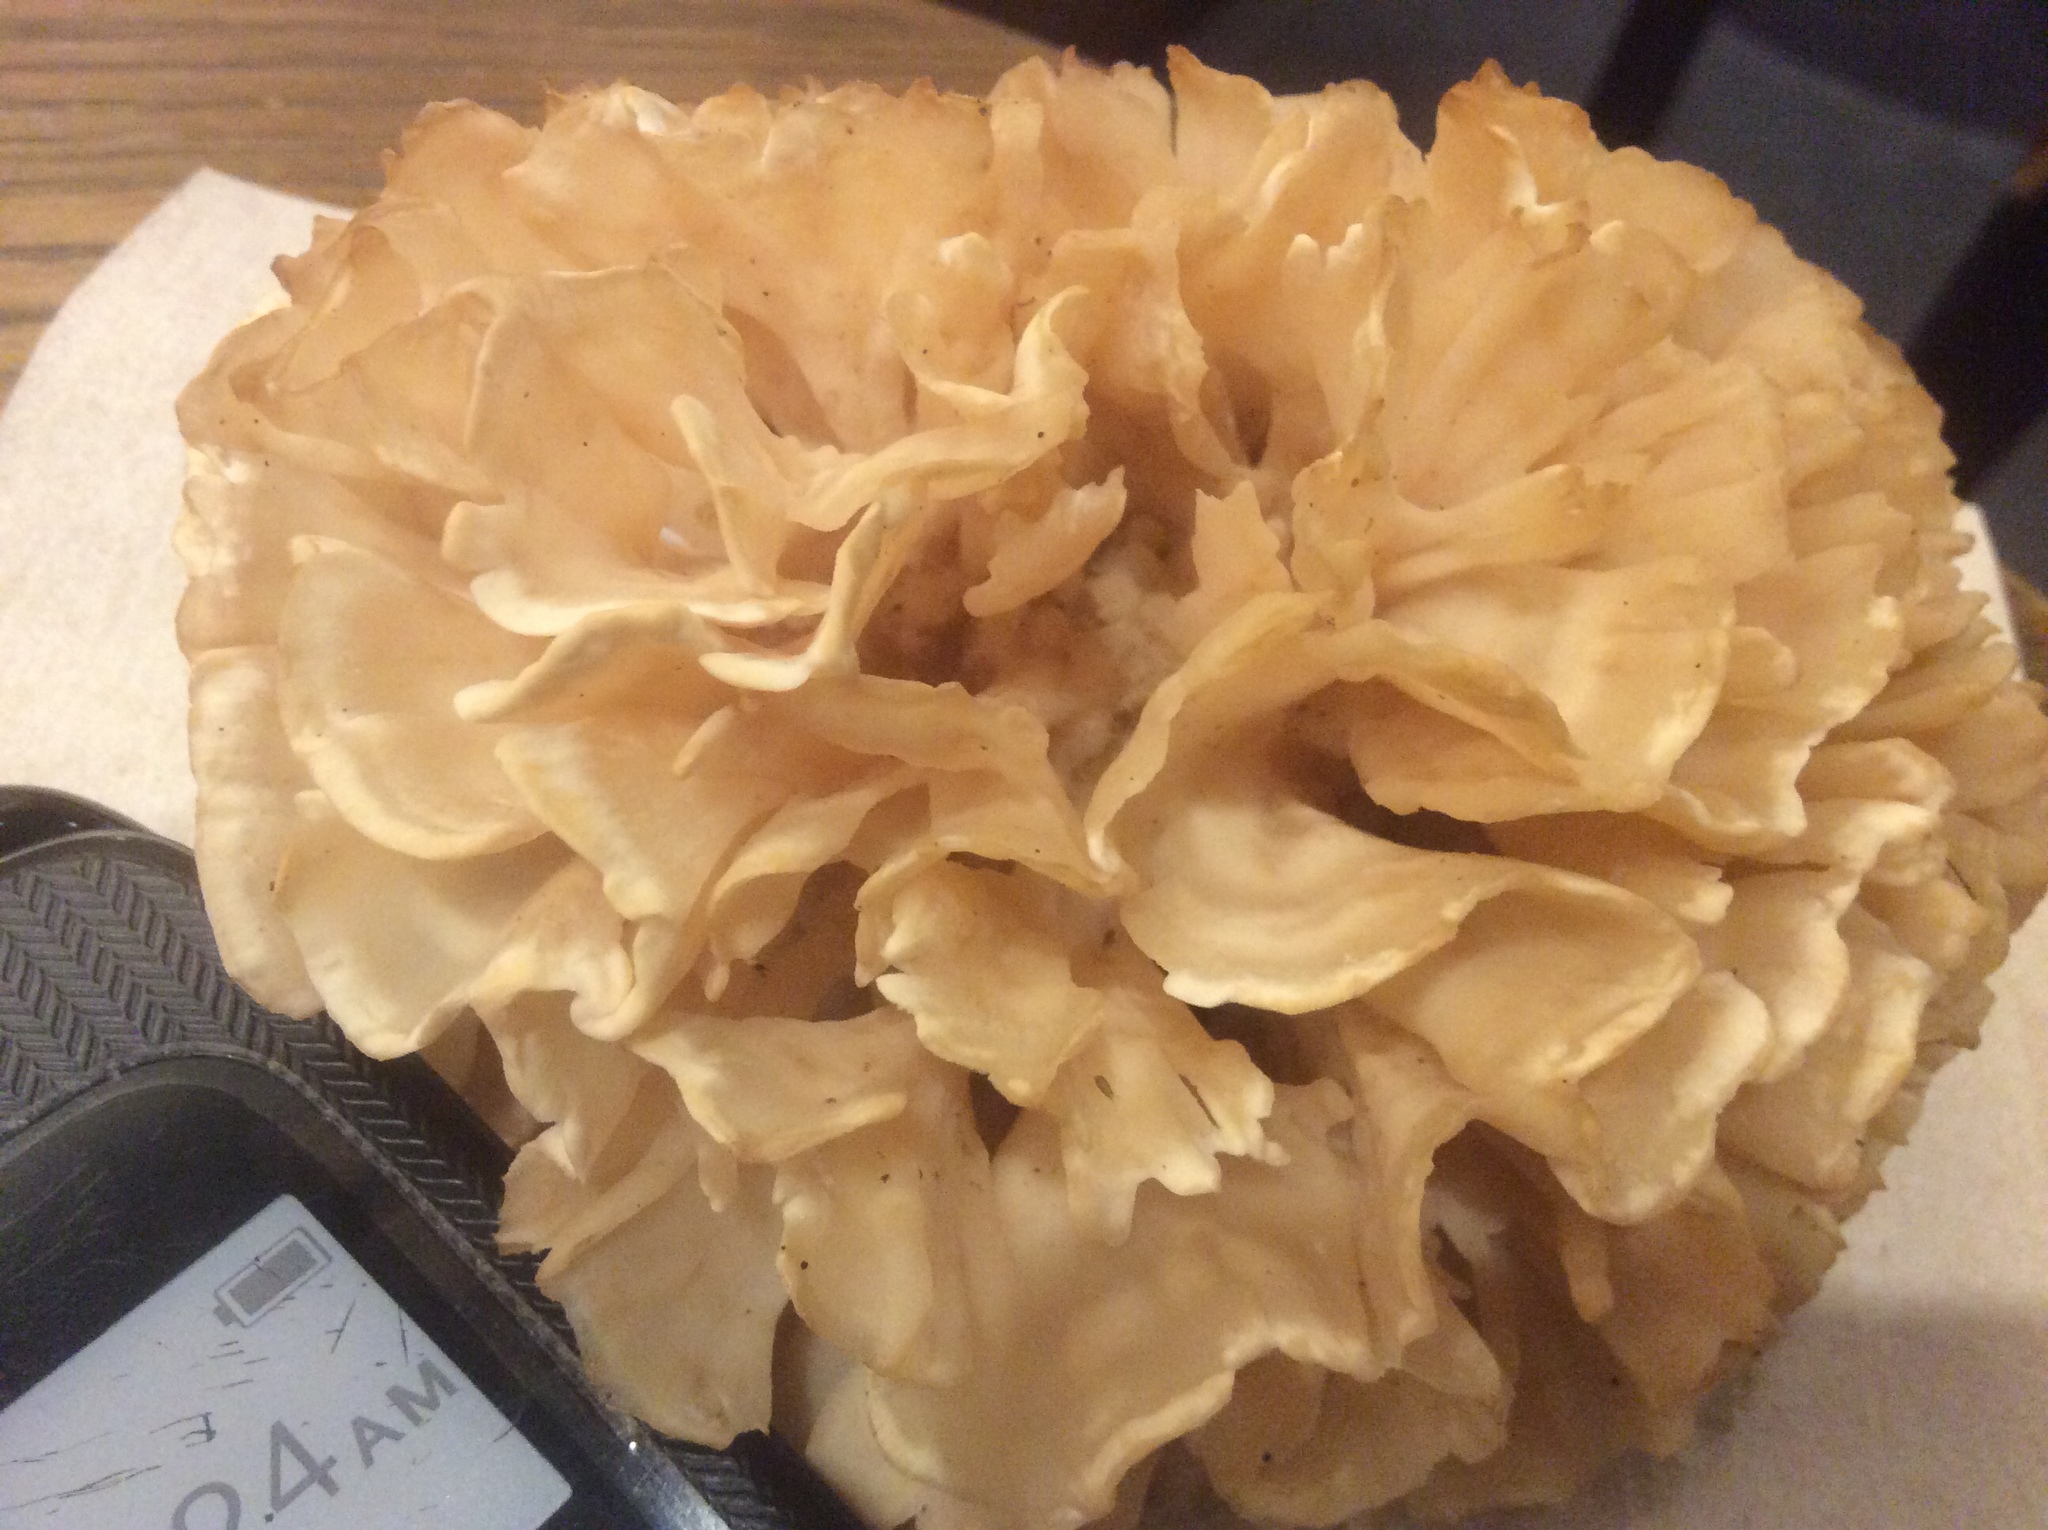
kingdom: Fungi
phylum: Basidiomycota
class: Agaricomycetes
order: Polyporales
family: Sparassidaceae
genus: Sparassis
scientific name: Sparassis spathulata
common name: Eastern cauliflower mushroom
